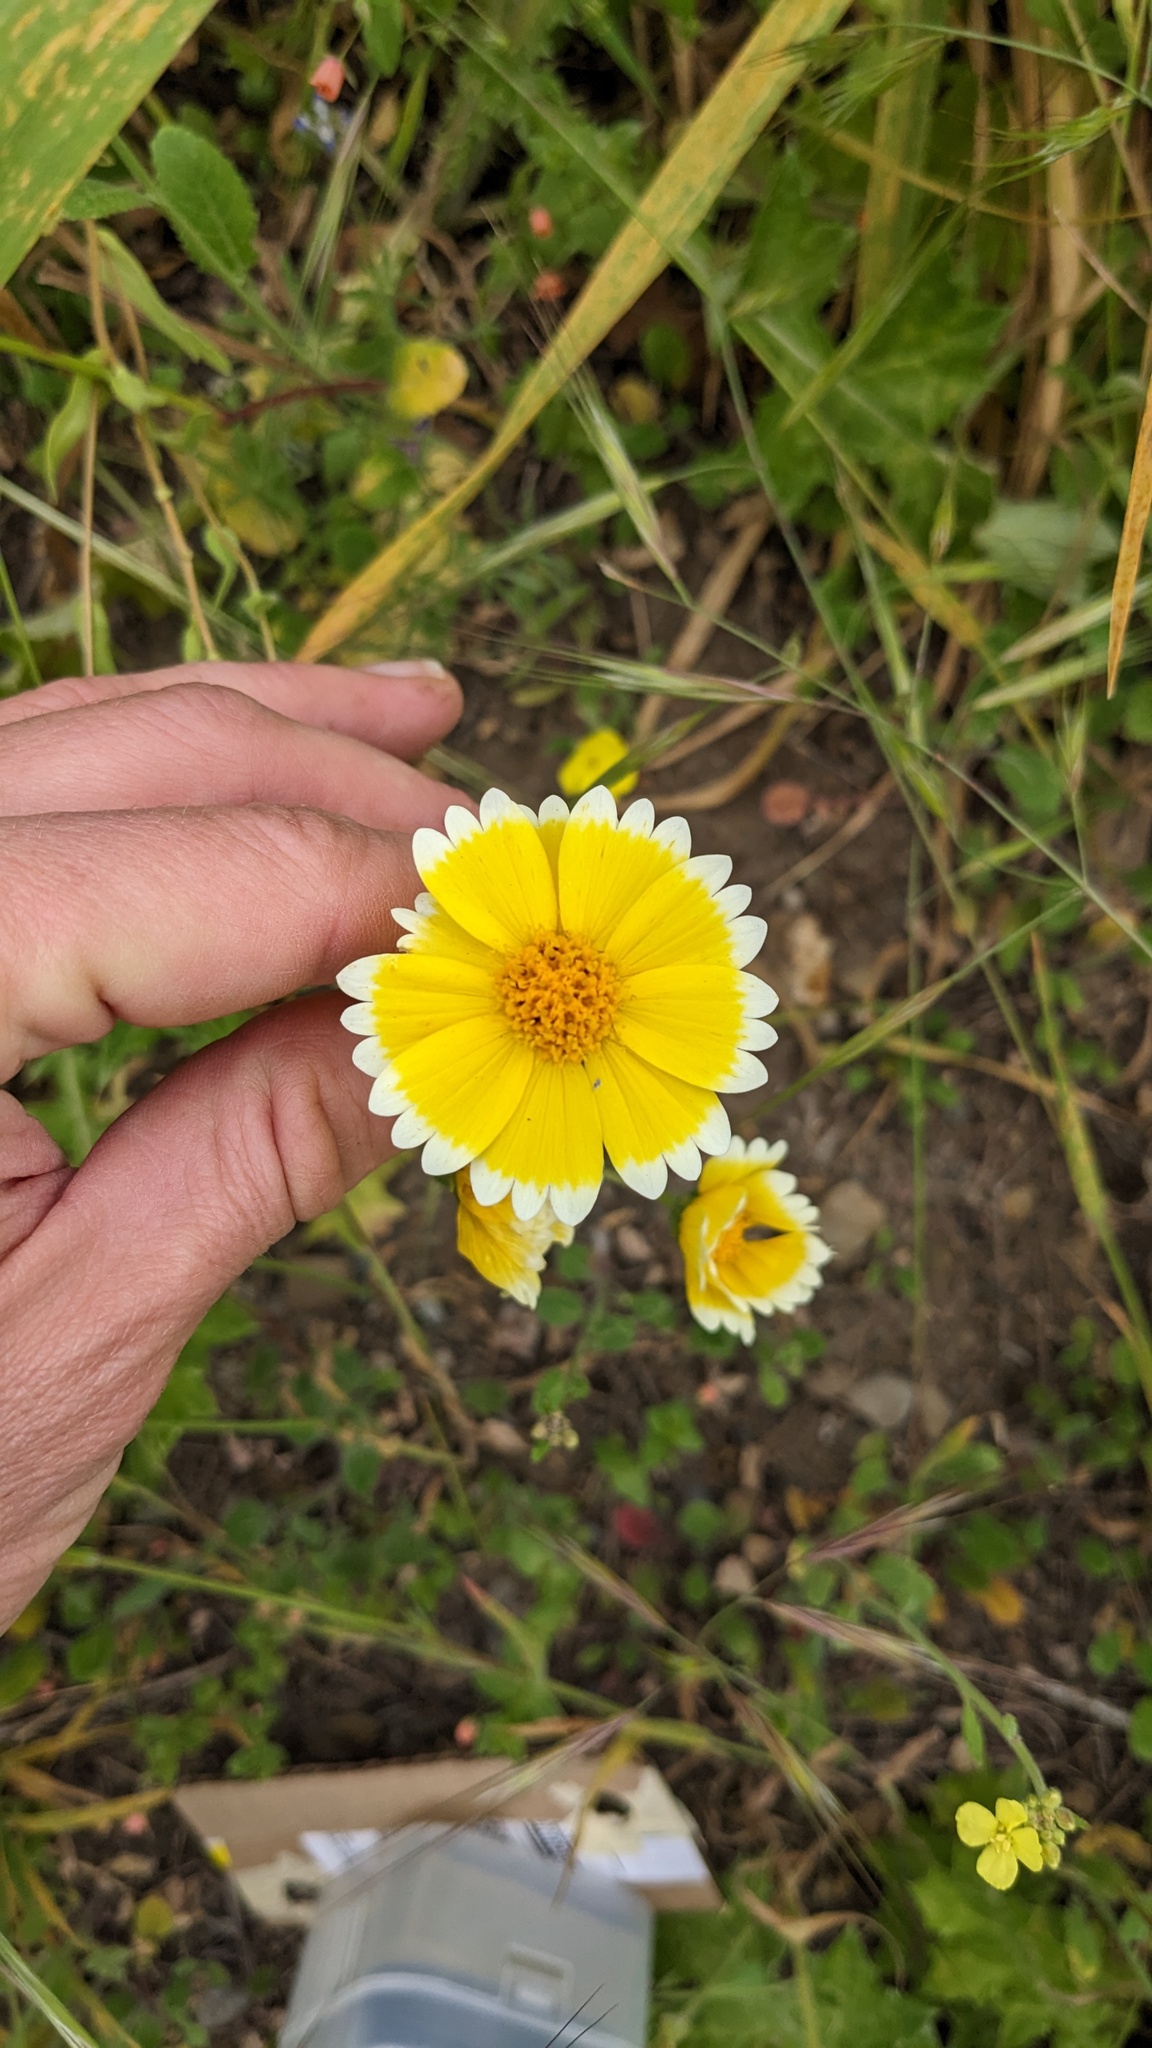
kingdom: Plantae
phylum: Tracheophyta
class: Magnoliopsida
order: Asterales
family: Asteraceae
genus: Layia
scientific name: Layia platyglossa
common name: Tidy-tips
